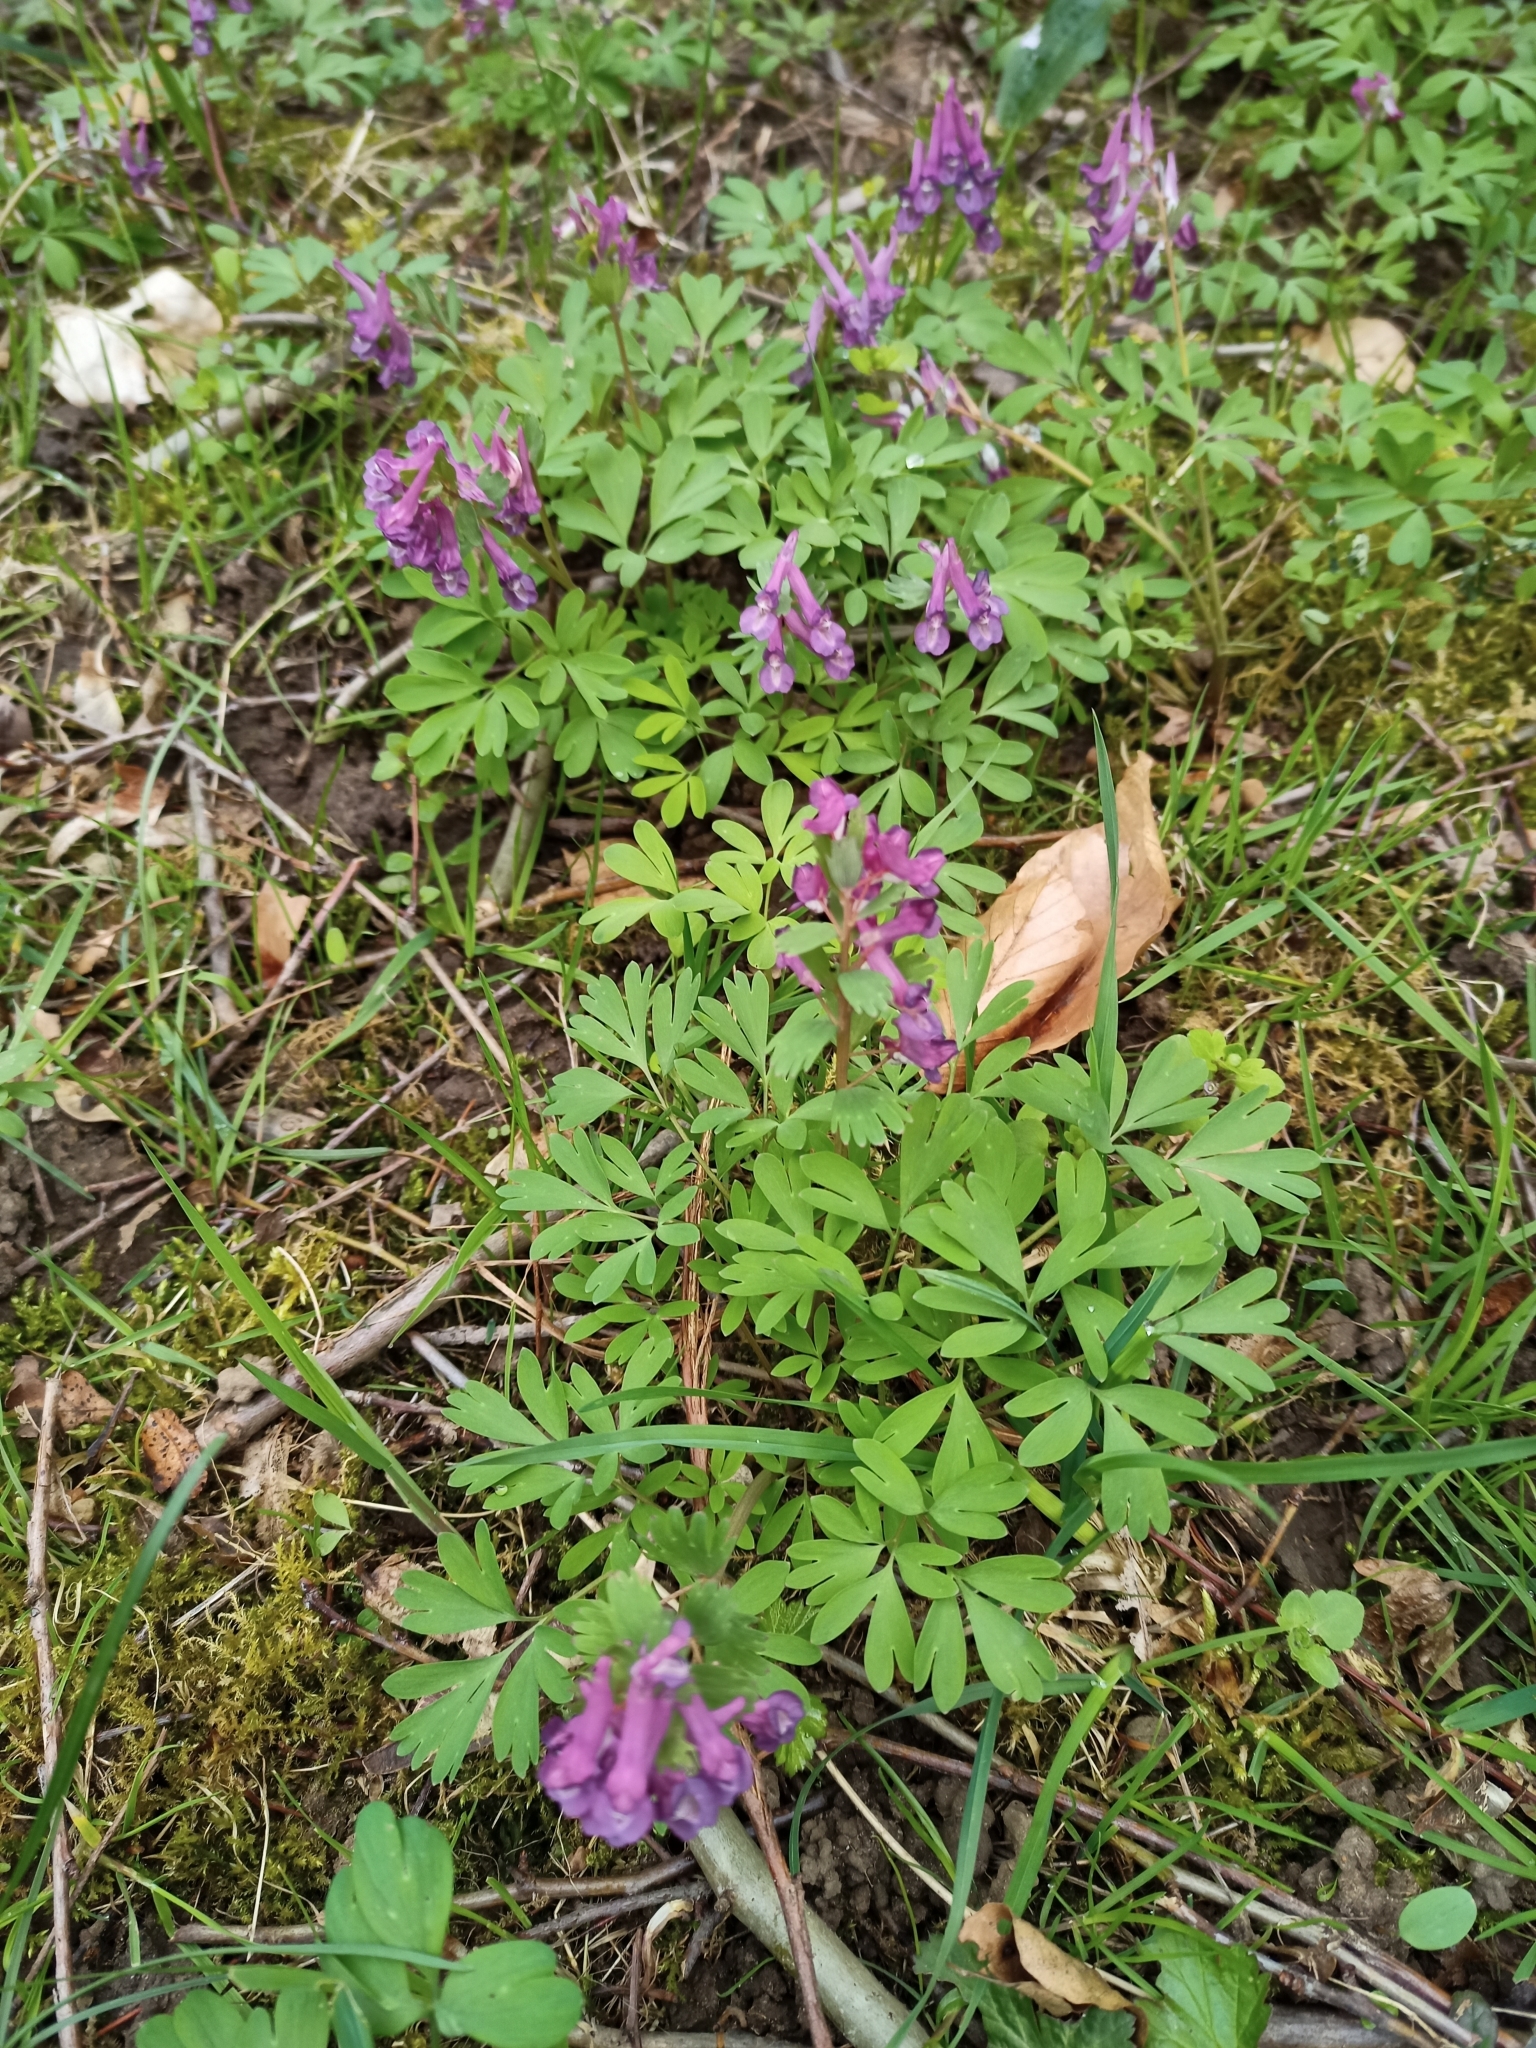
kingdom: Plantae
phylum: Tracheophyta
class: Magnoliopsida
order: Ranunculales
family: Papaveraceae
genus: Corydalis
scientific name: Corydalis solida
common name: Bird-in-a-bush
